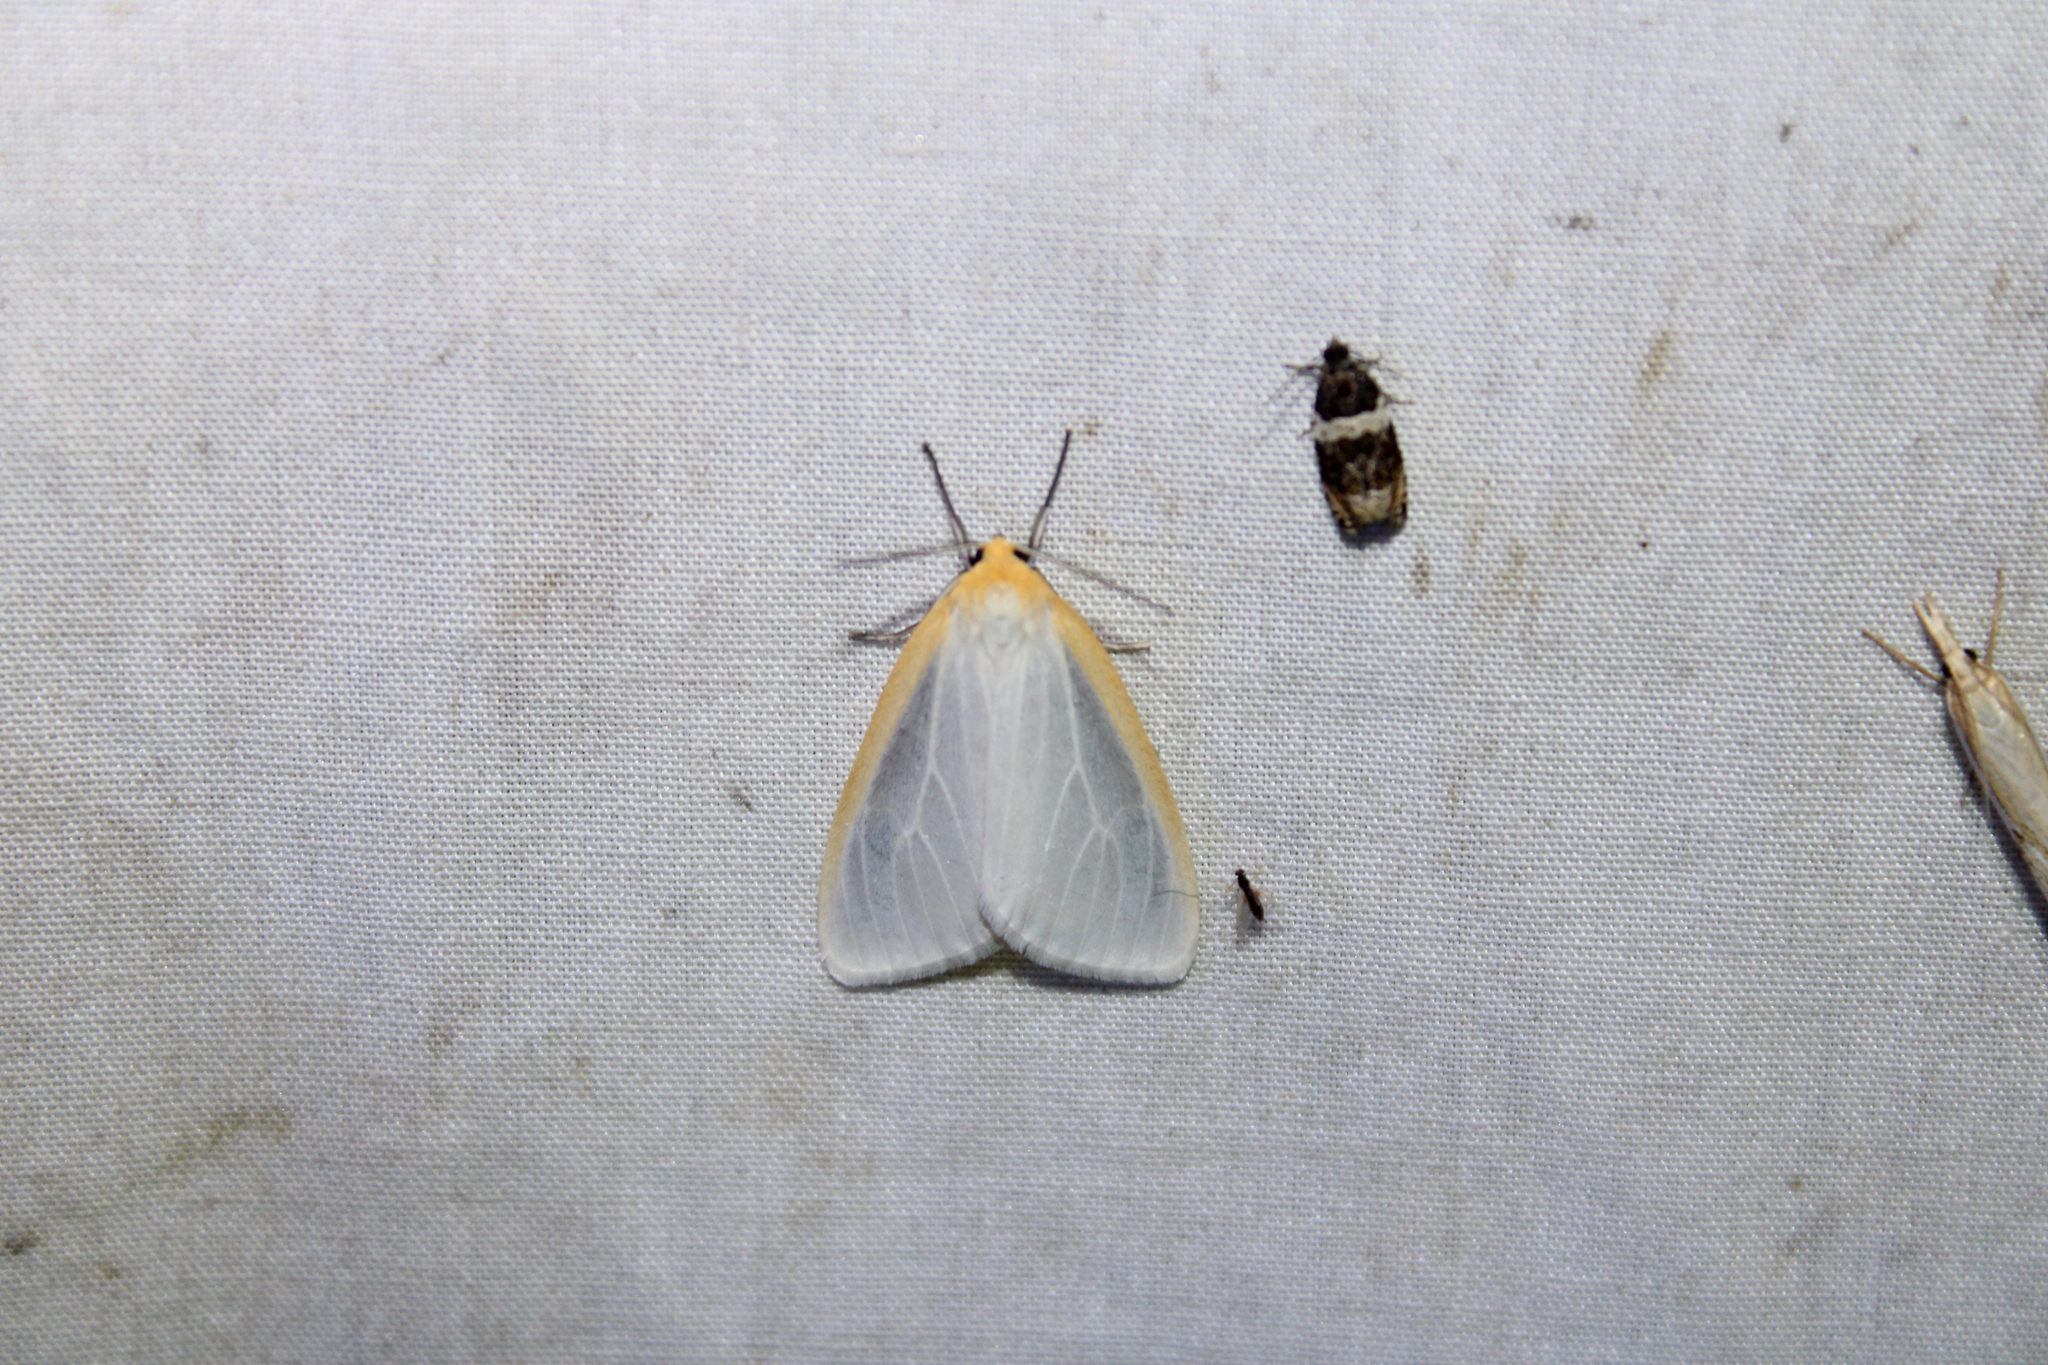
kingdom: Animalia
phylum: Arthropoda
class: Insecta
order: Lepidoptera
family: Erebidae
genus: Cycnia
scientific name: Cycnia tenera
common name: Delicate cycnia moth
